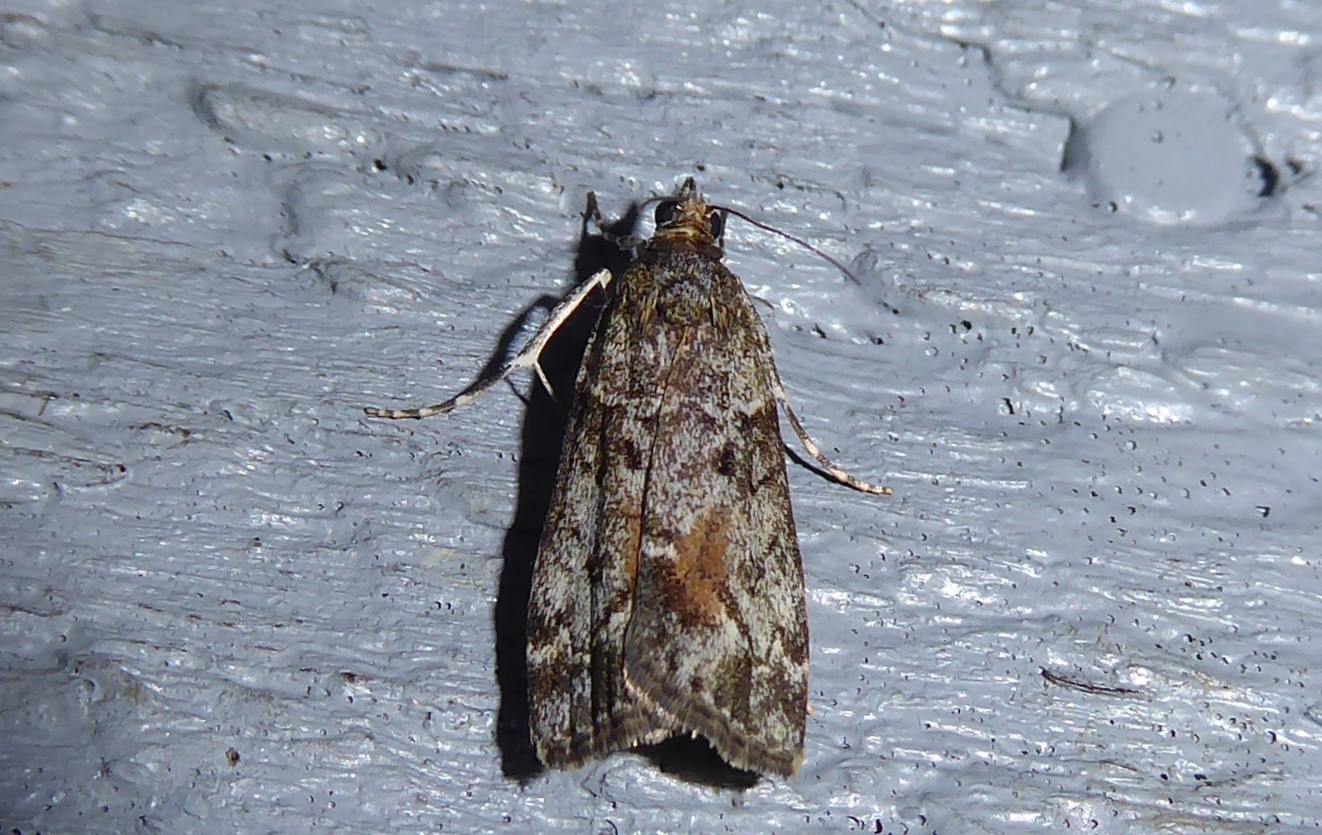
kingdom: Animalia
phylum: Arthropoda
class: Insecta
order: Lepidoptera
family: Crambidae
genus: Eudonia
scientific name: Eudonia submarginalis
